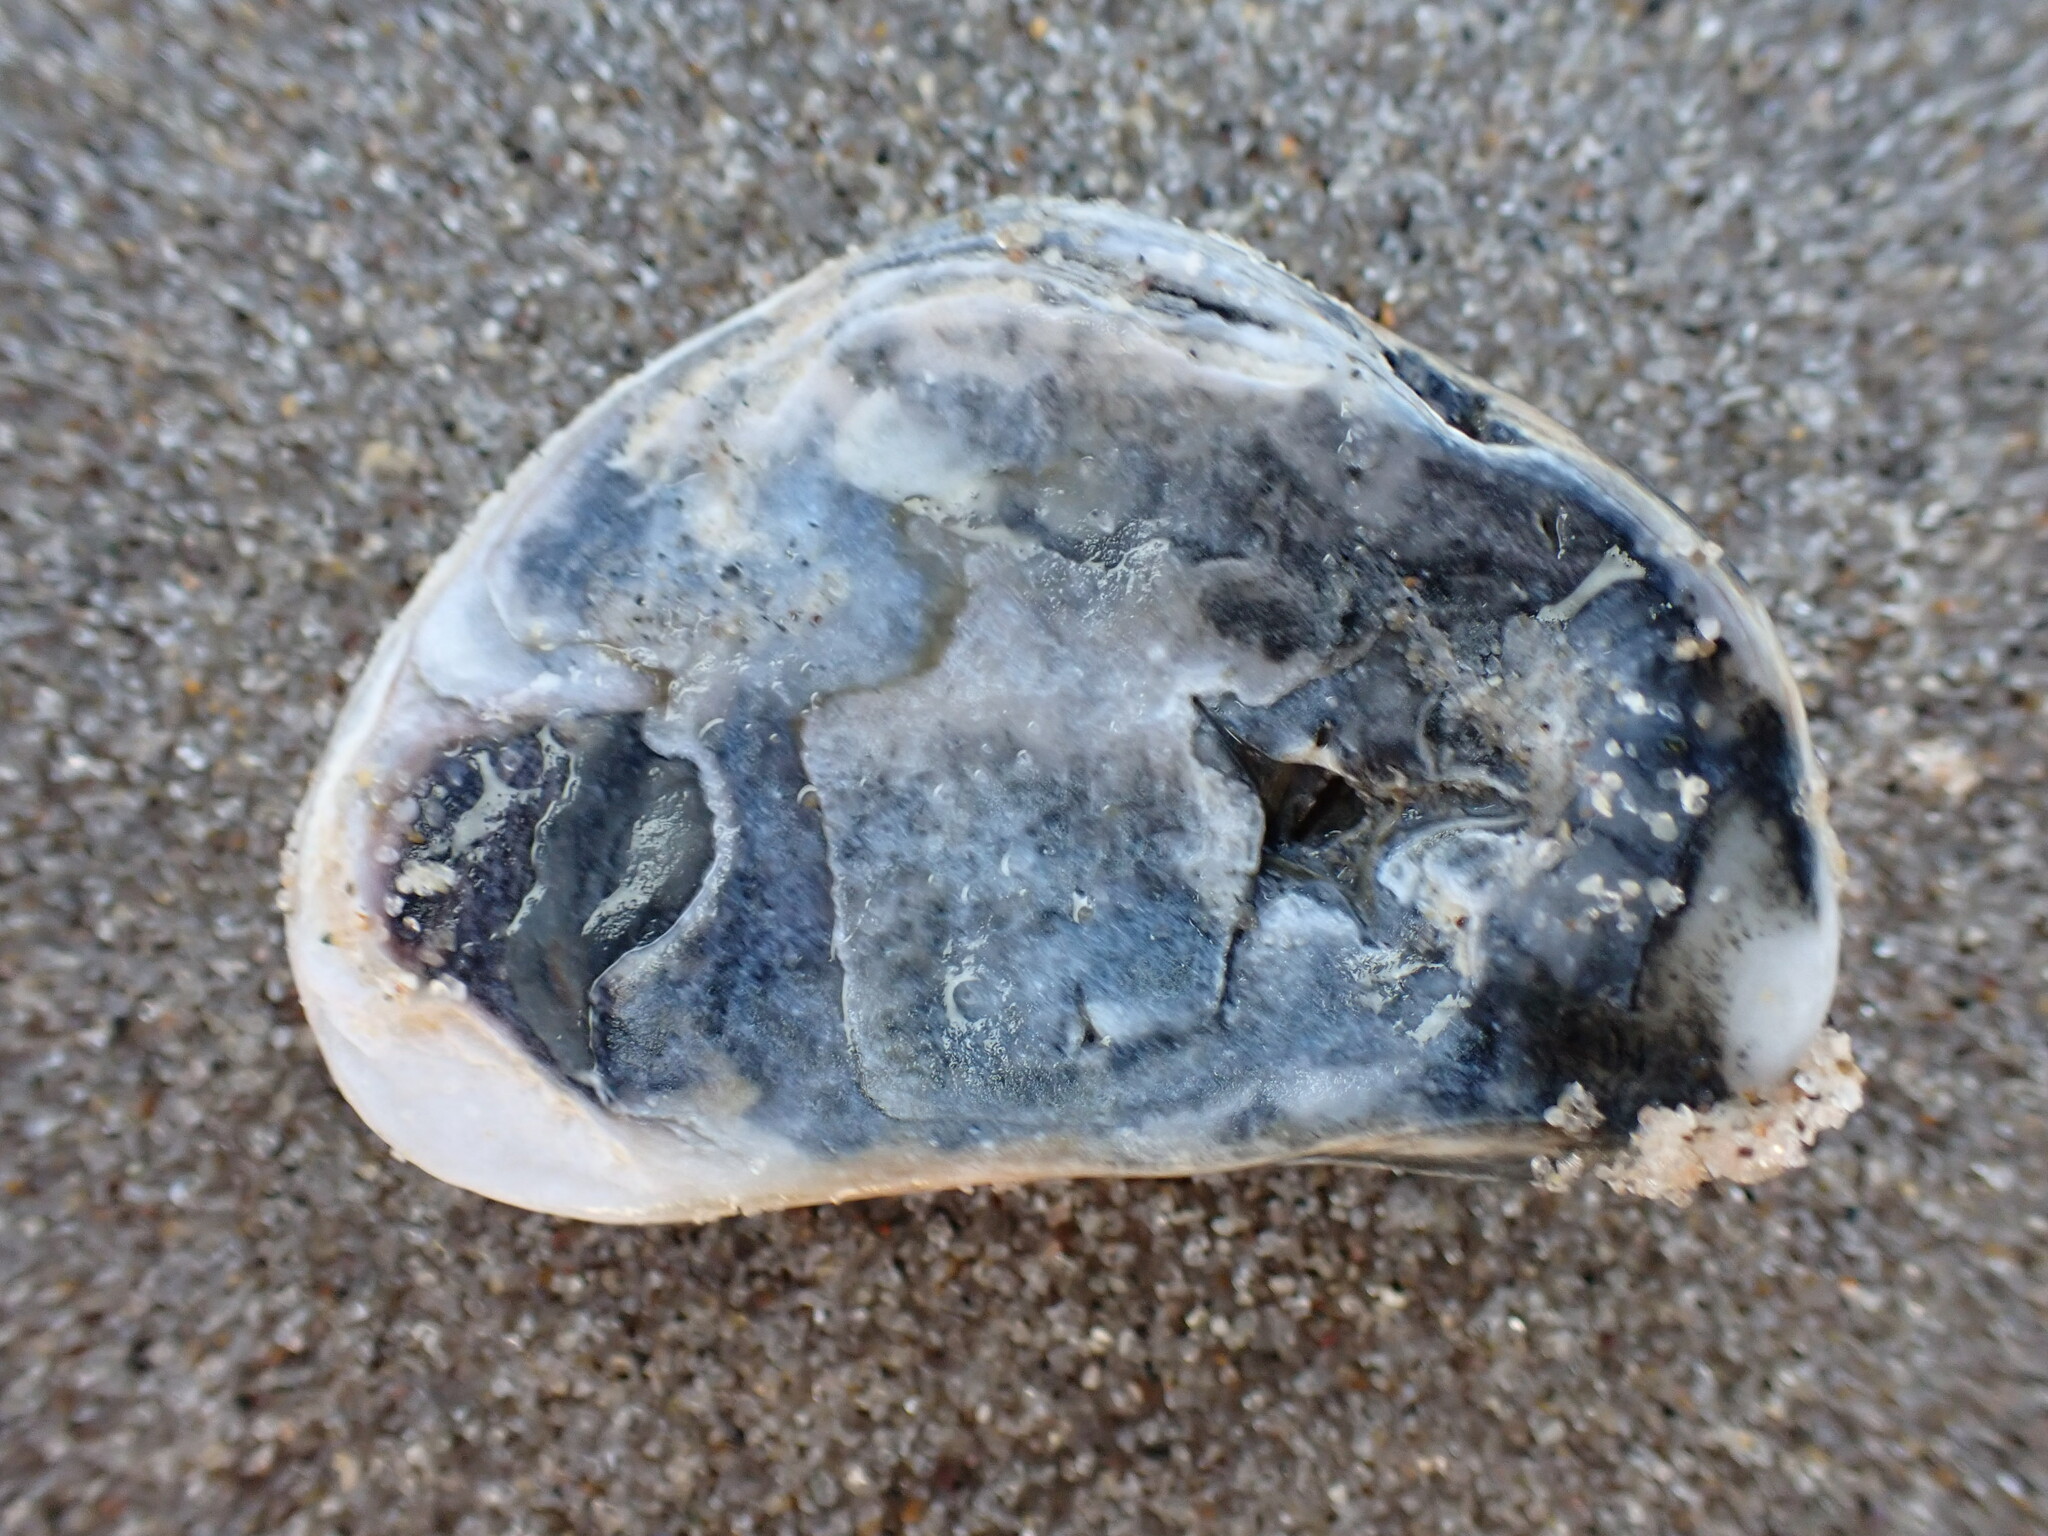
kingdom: Animalia
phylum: Mollusca
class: Bivalvia
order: Ostreida
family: Ostreidae
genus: Crassostrea
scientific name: Crassostrea virginica
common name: American oyster
